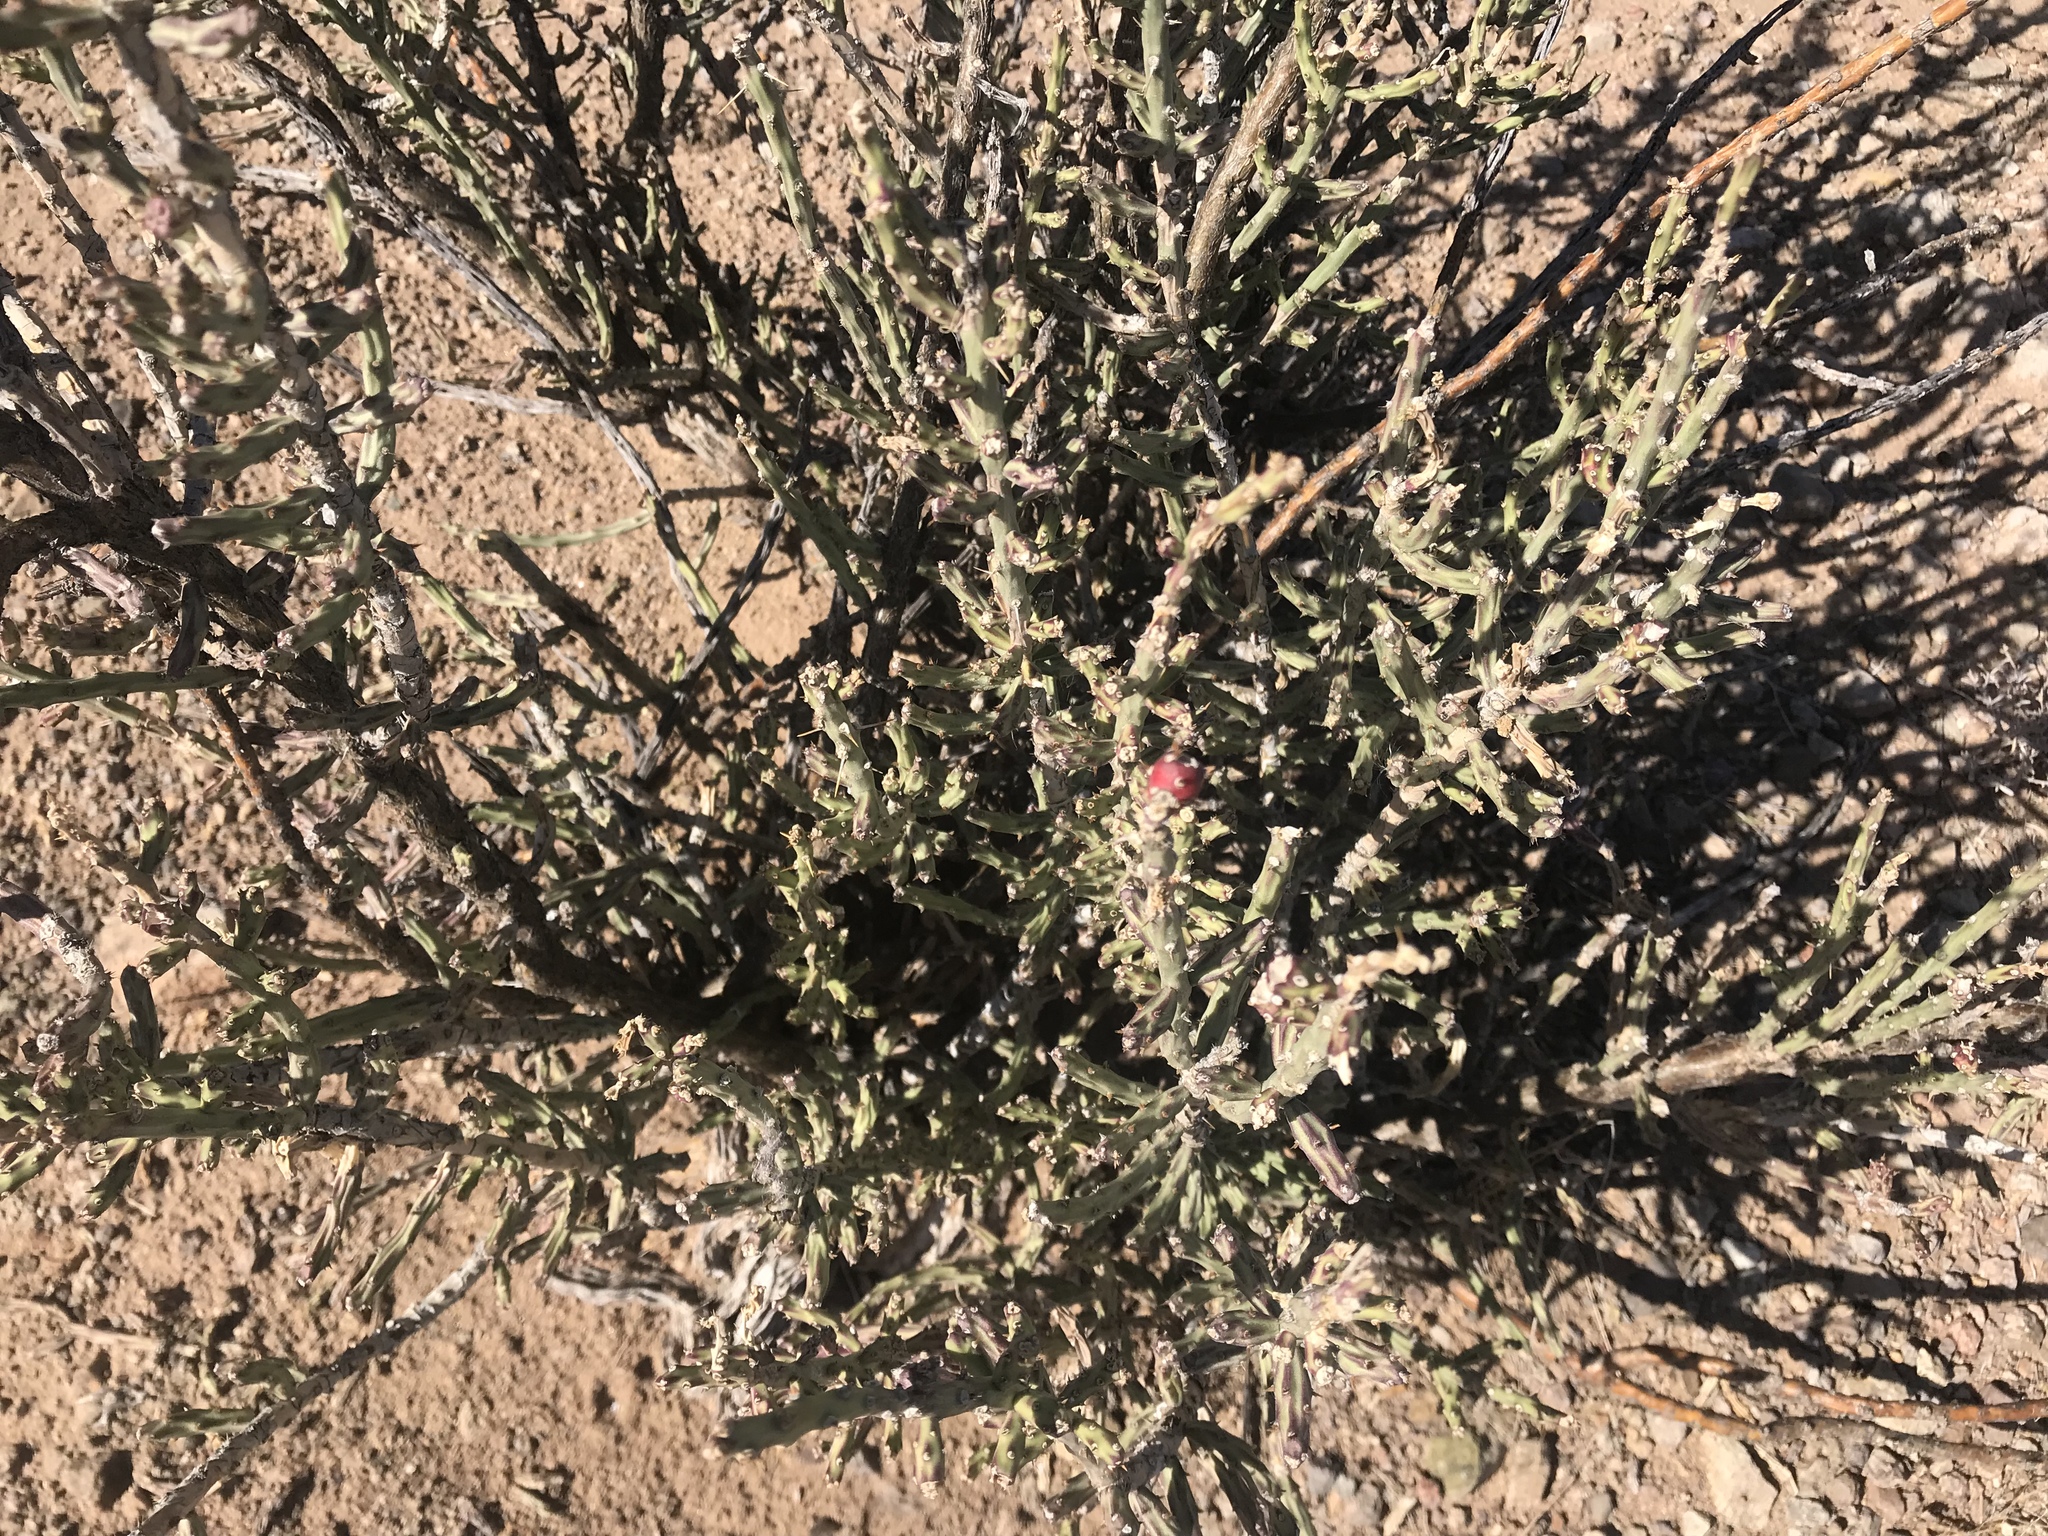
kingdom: Plantae
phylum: Tracheophyta
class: Magnoliopsida
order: Caryophyllales
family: Cactaceae
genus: Cylindropuntia
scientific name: Cylindropuntia leptocaulis
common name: Christmas cactus
